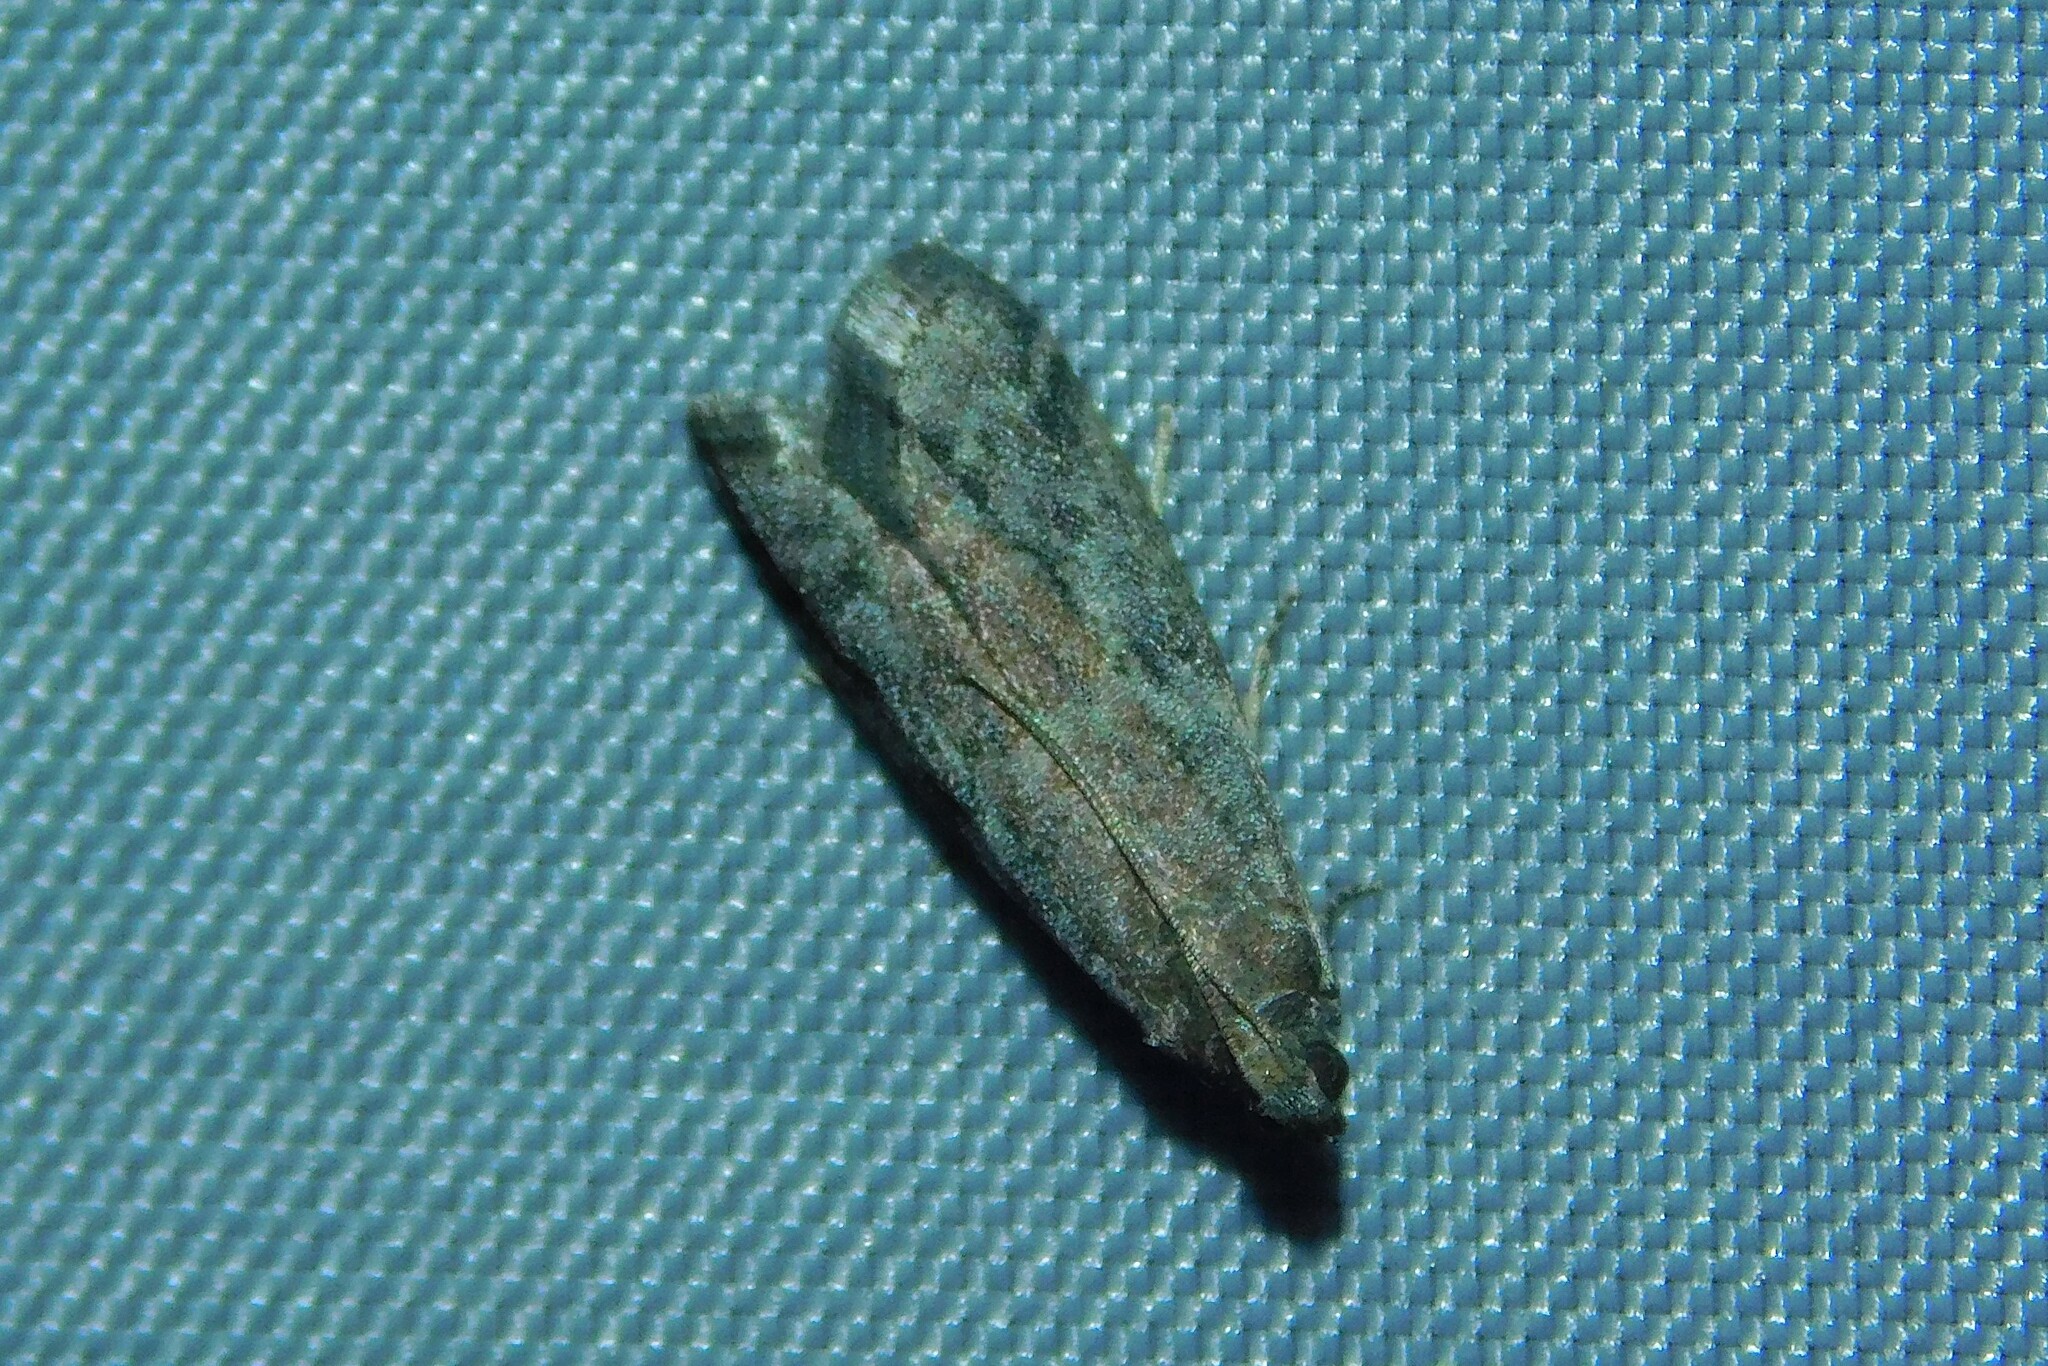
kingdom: Animalia
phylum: Arthropoda
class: Insecta
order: Lepidoptera
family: Pyralidae
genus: Ephestia
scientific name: Ephestia
